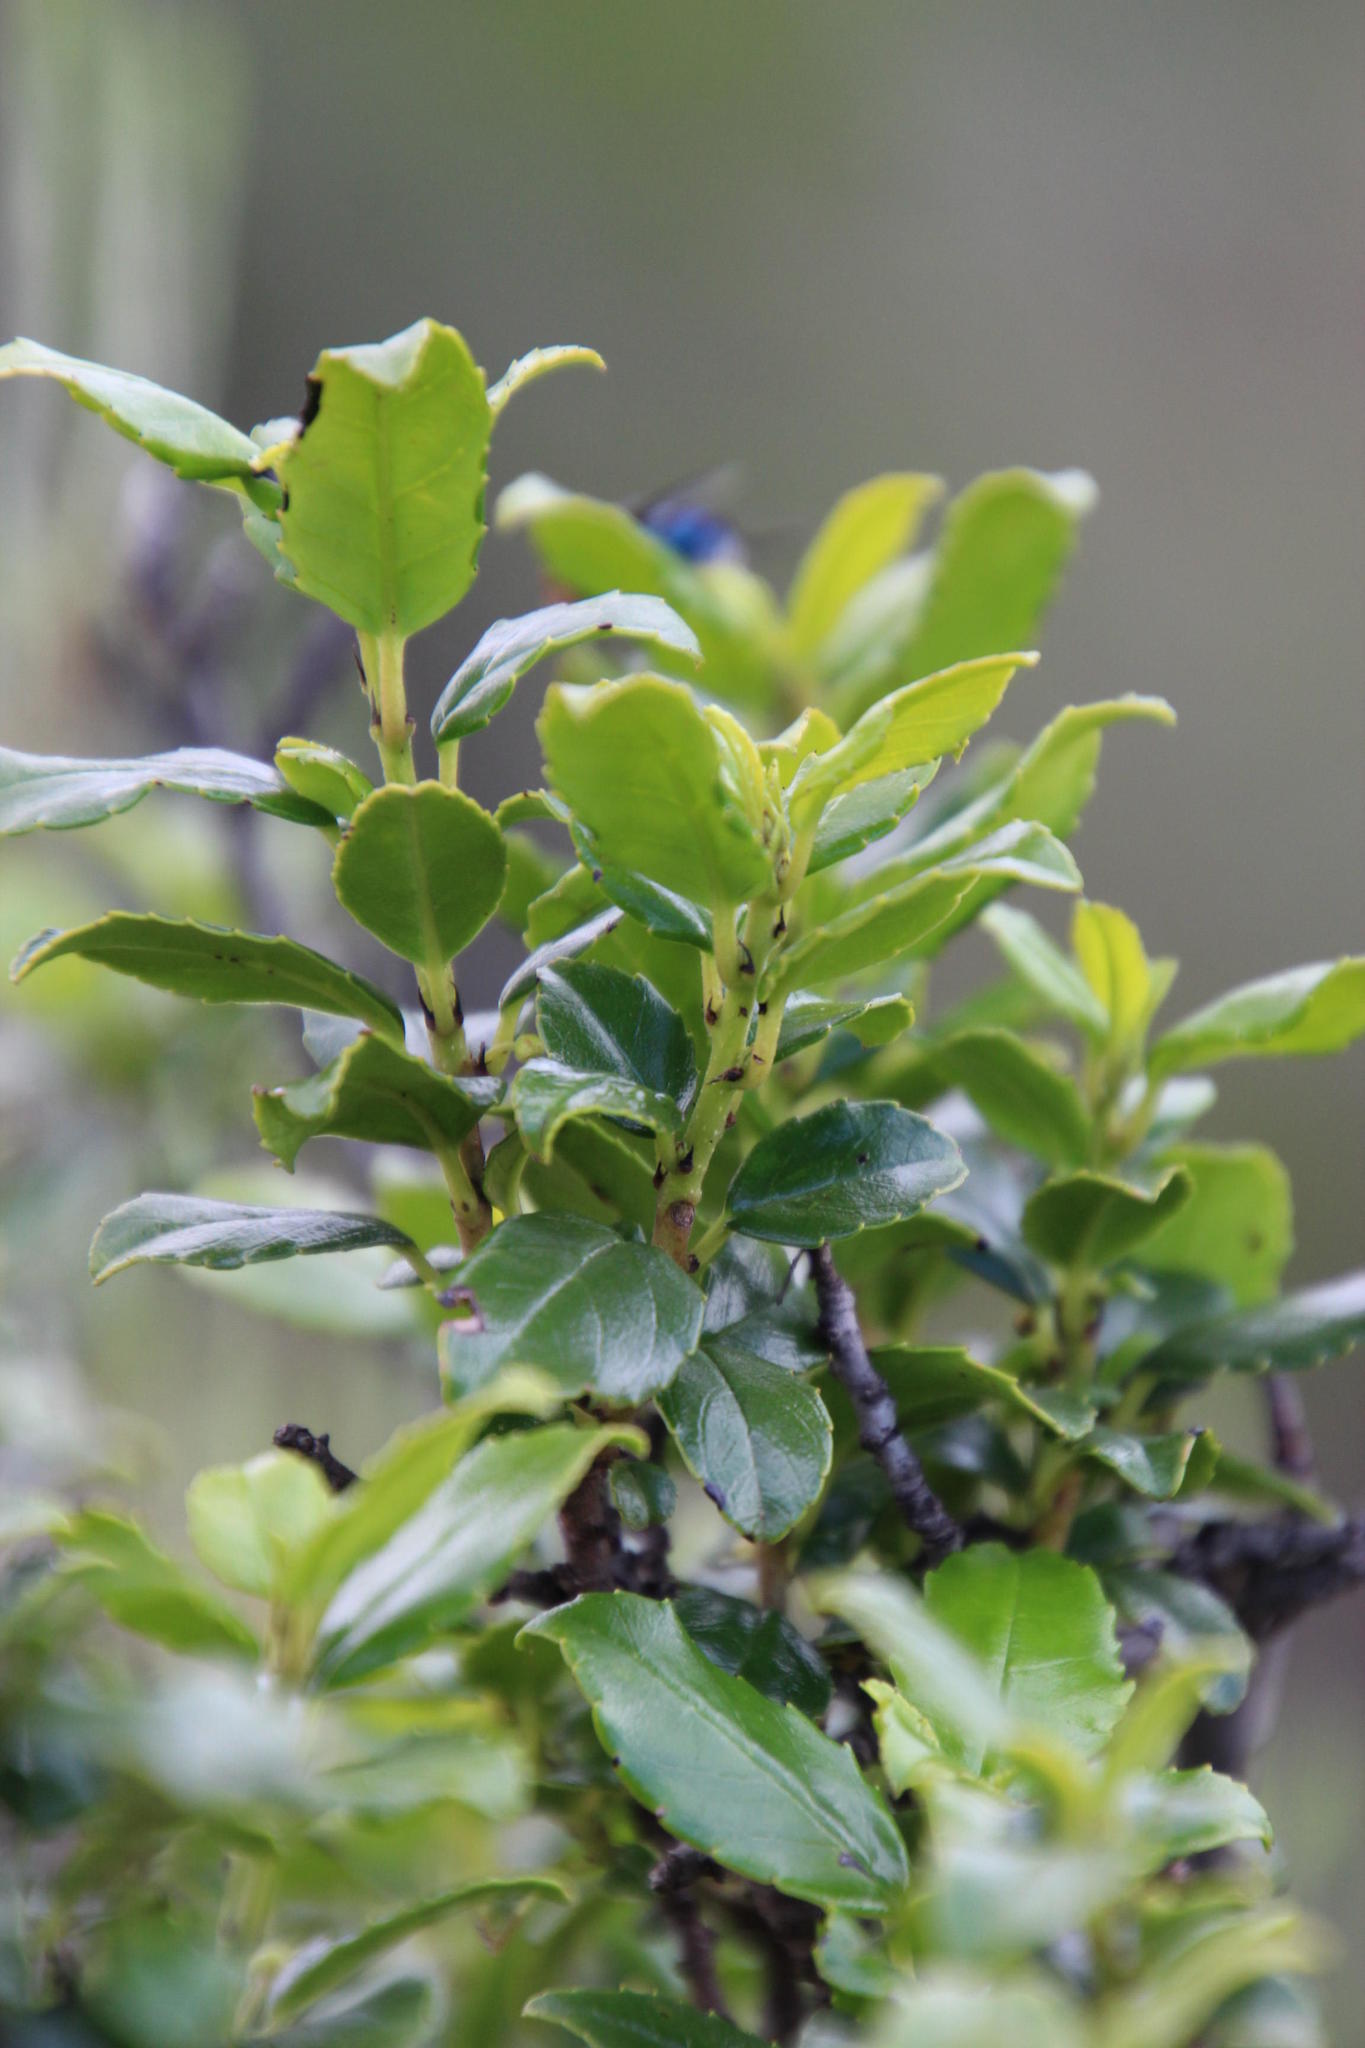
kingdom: Plantae
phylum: Tracheophyta
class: Magnoliopsida
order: Rosales
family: Rhamnaceae
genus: Rhamnus
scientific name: Rhamnus prinoides
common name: Dogwood
